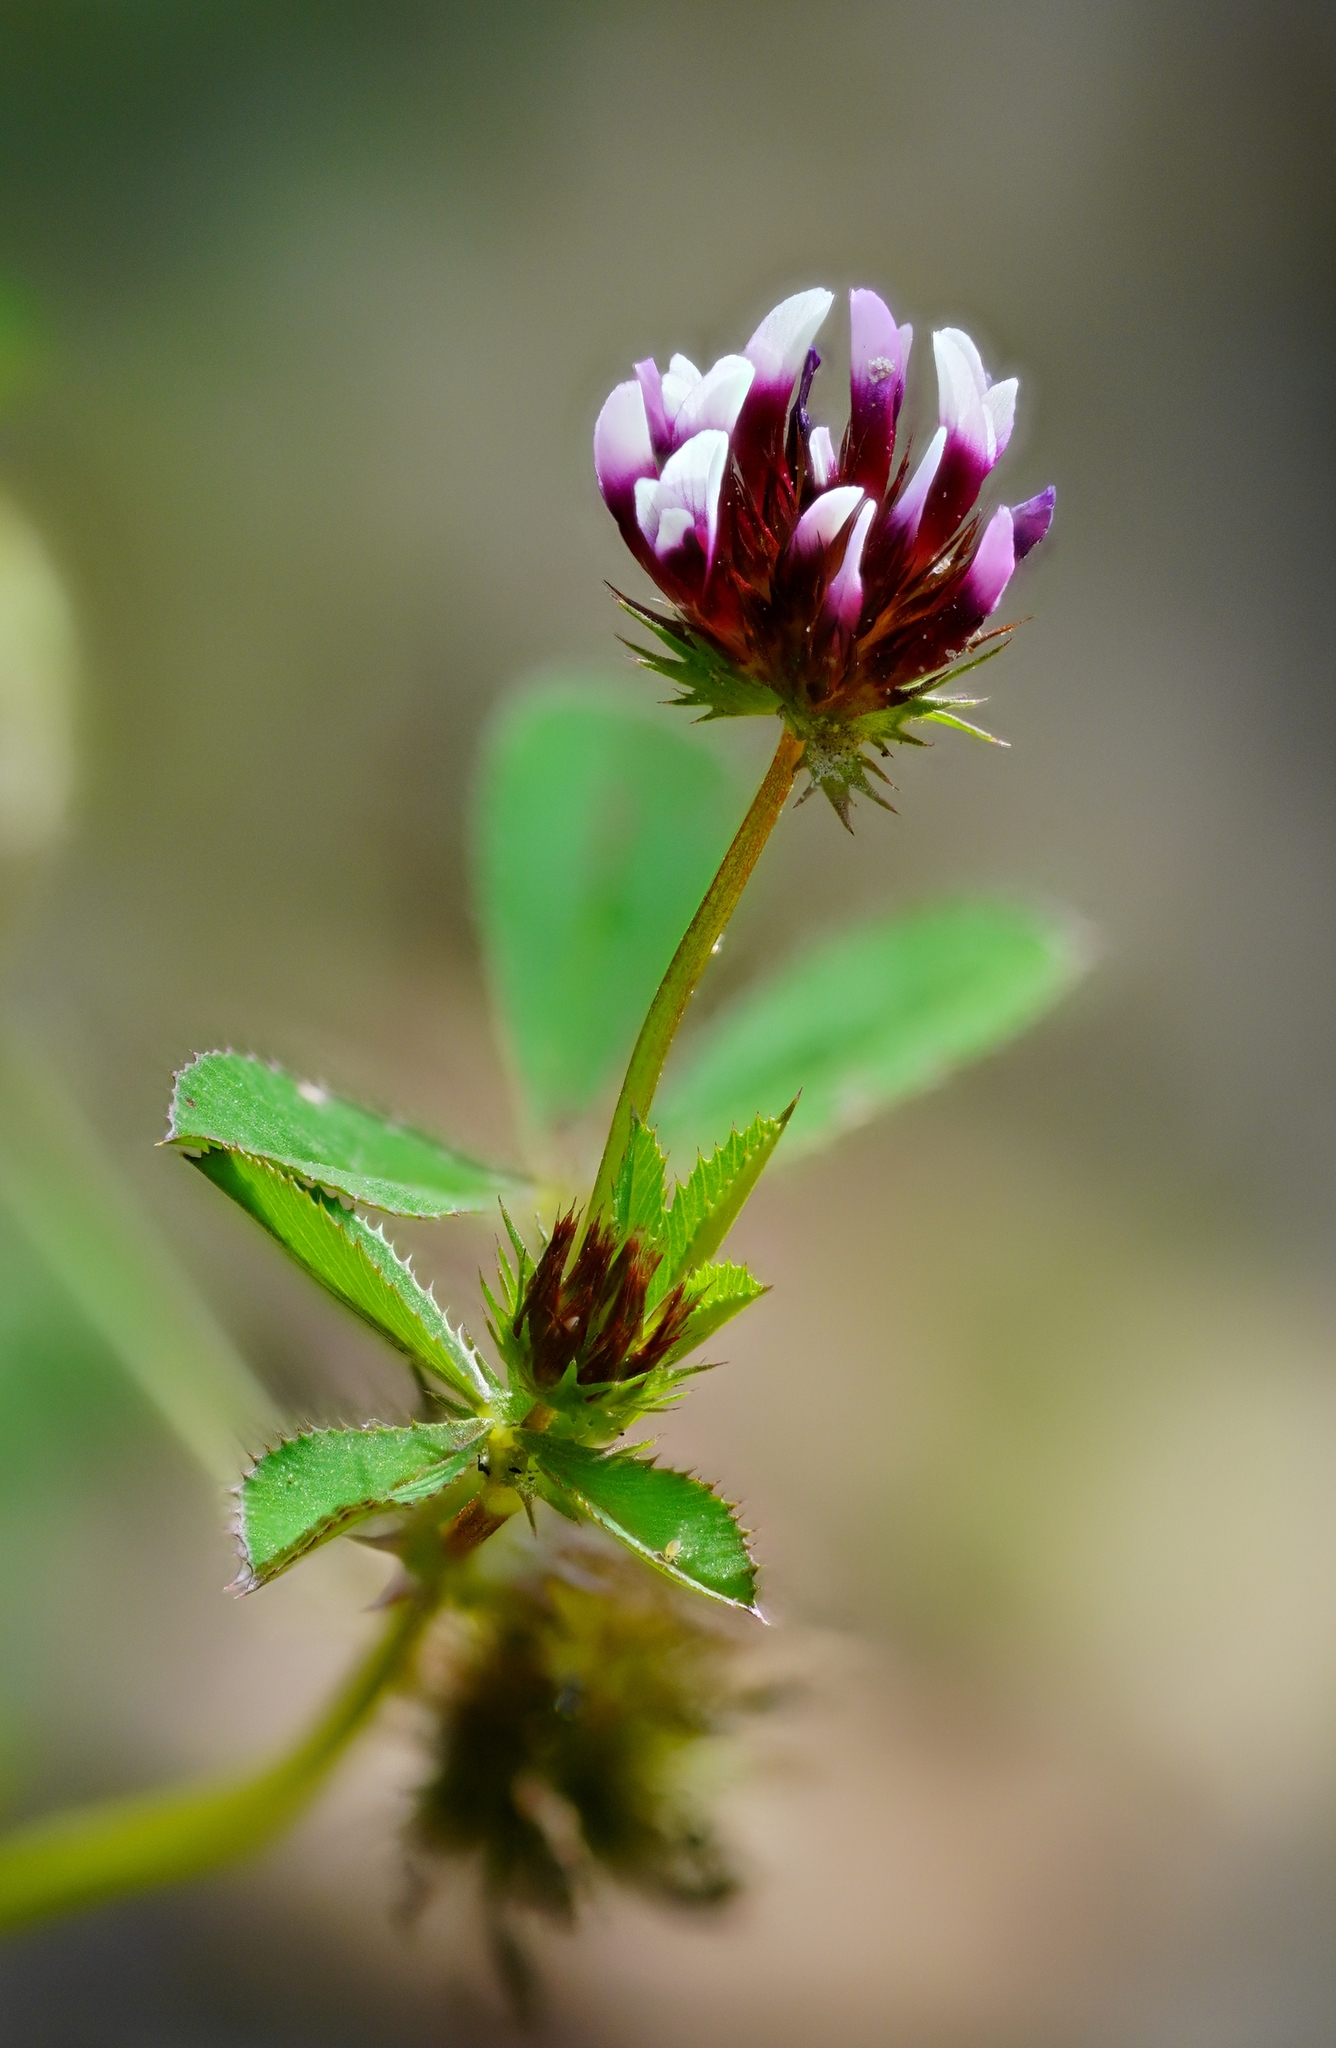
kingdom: Plantae
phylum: Tracheophyta
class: Magnoliopsida
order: Fabales
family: Fabaceae
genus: Trifolium
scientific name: Trifolium variegatum
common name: Whitetip clover
